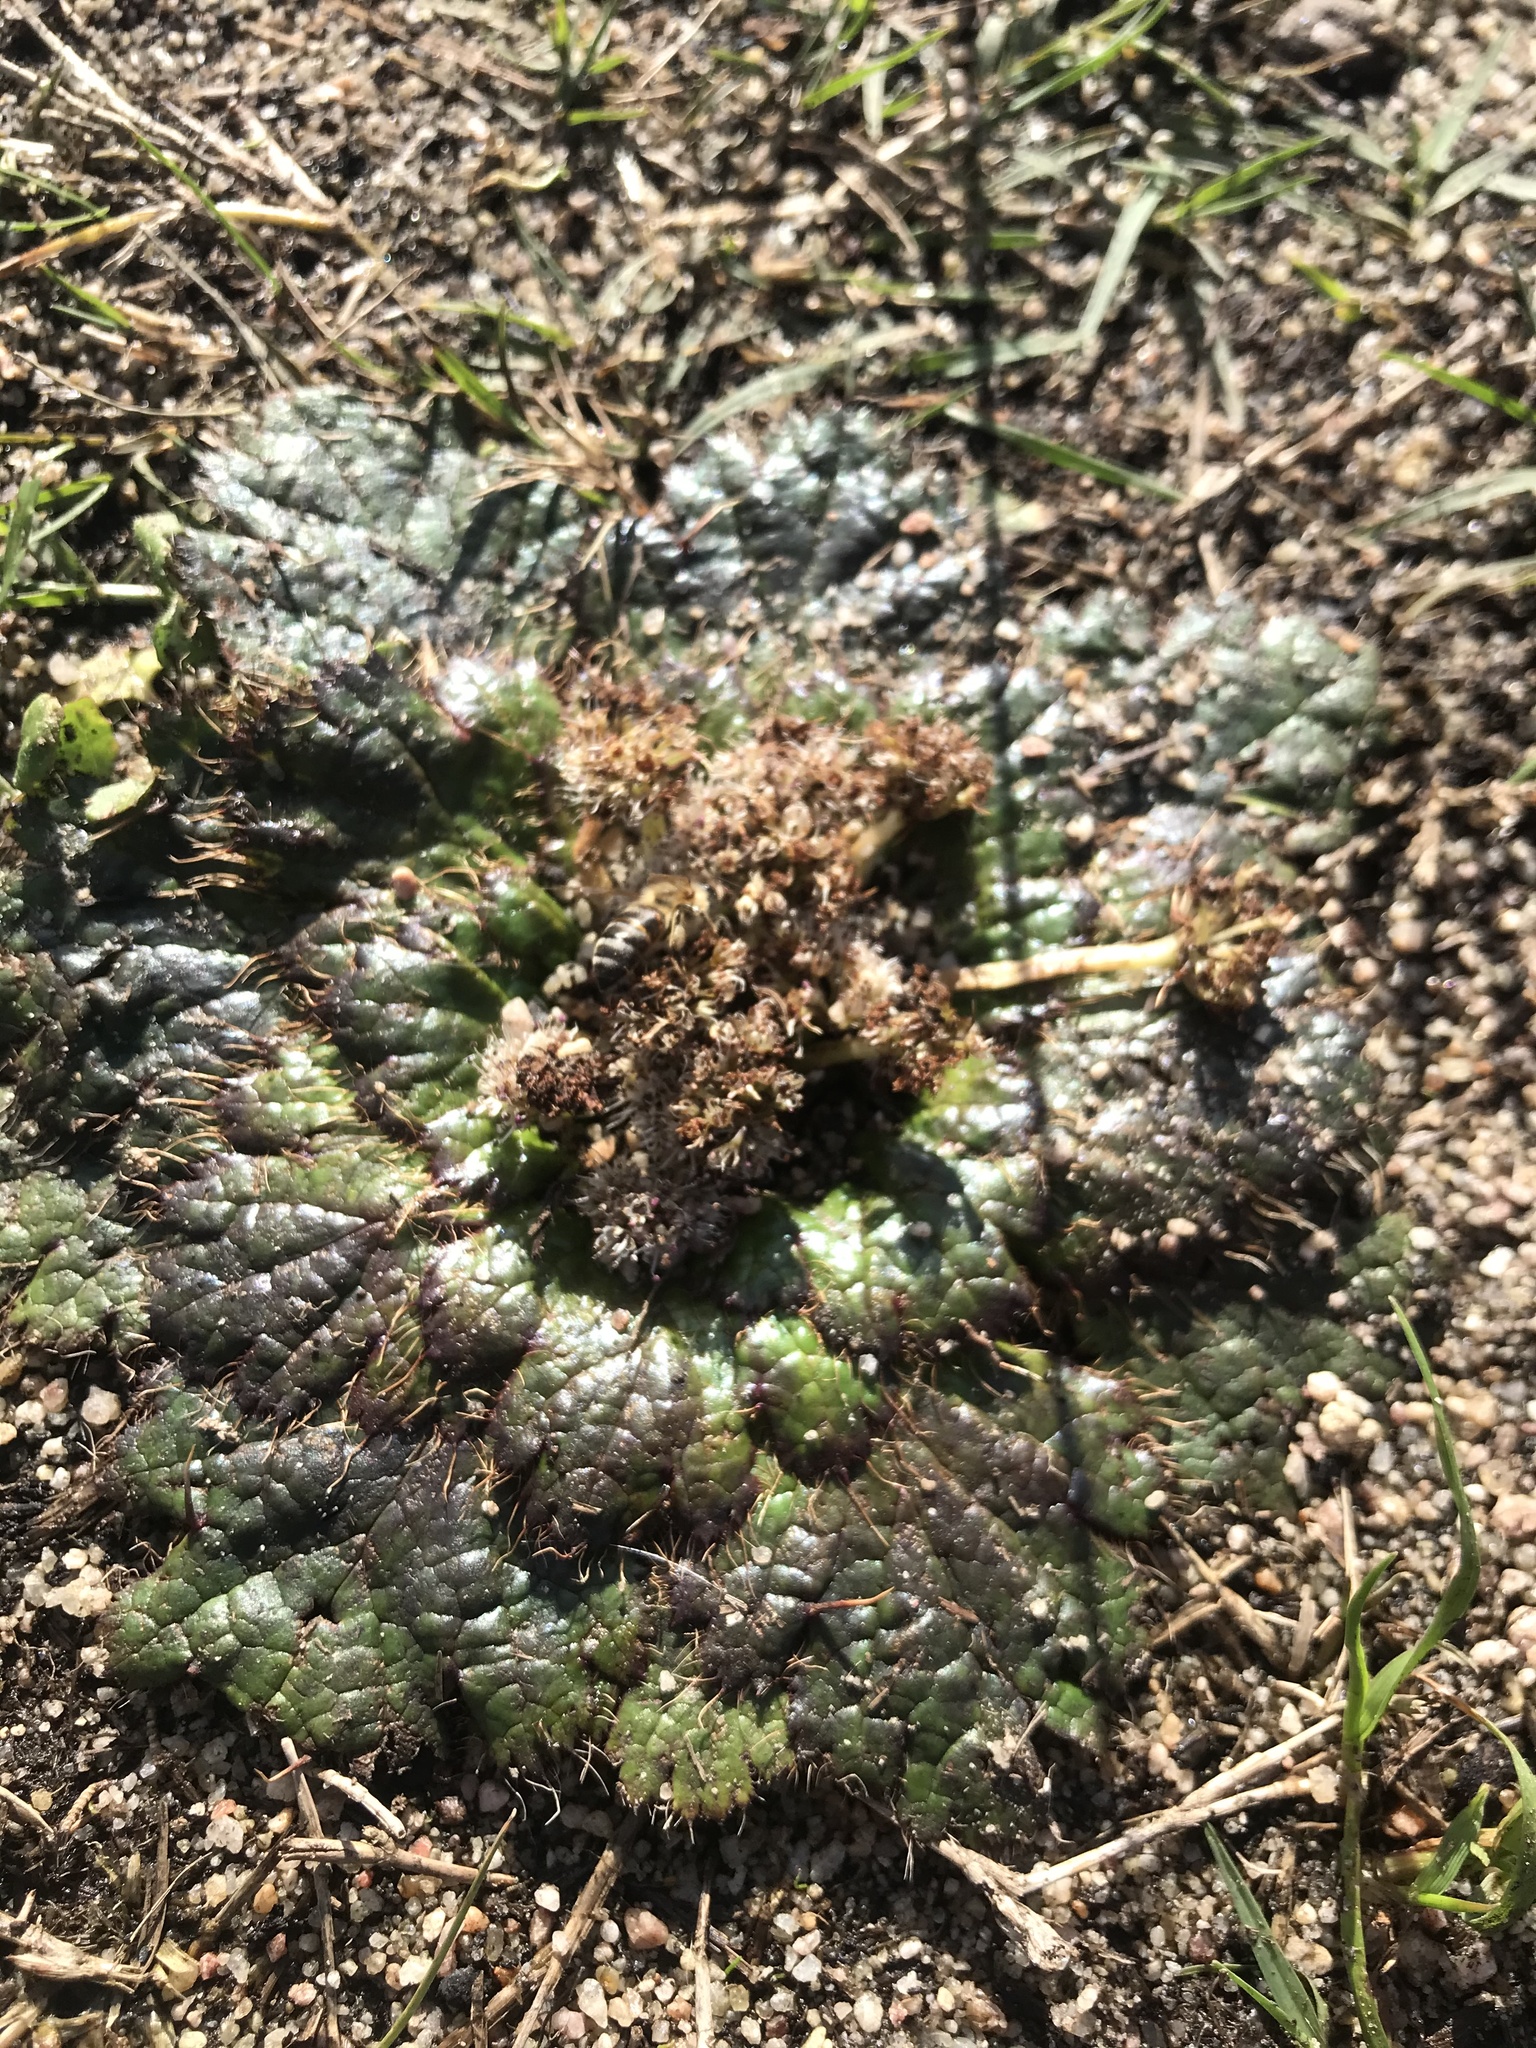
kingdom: Plantae
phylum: Tracheophyta
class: Magnoliopsida
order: Apiales
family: Apiaceae
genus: Arctopus
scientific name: Arctopus echinatus
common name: Platdoring
